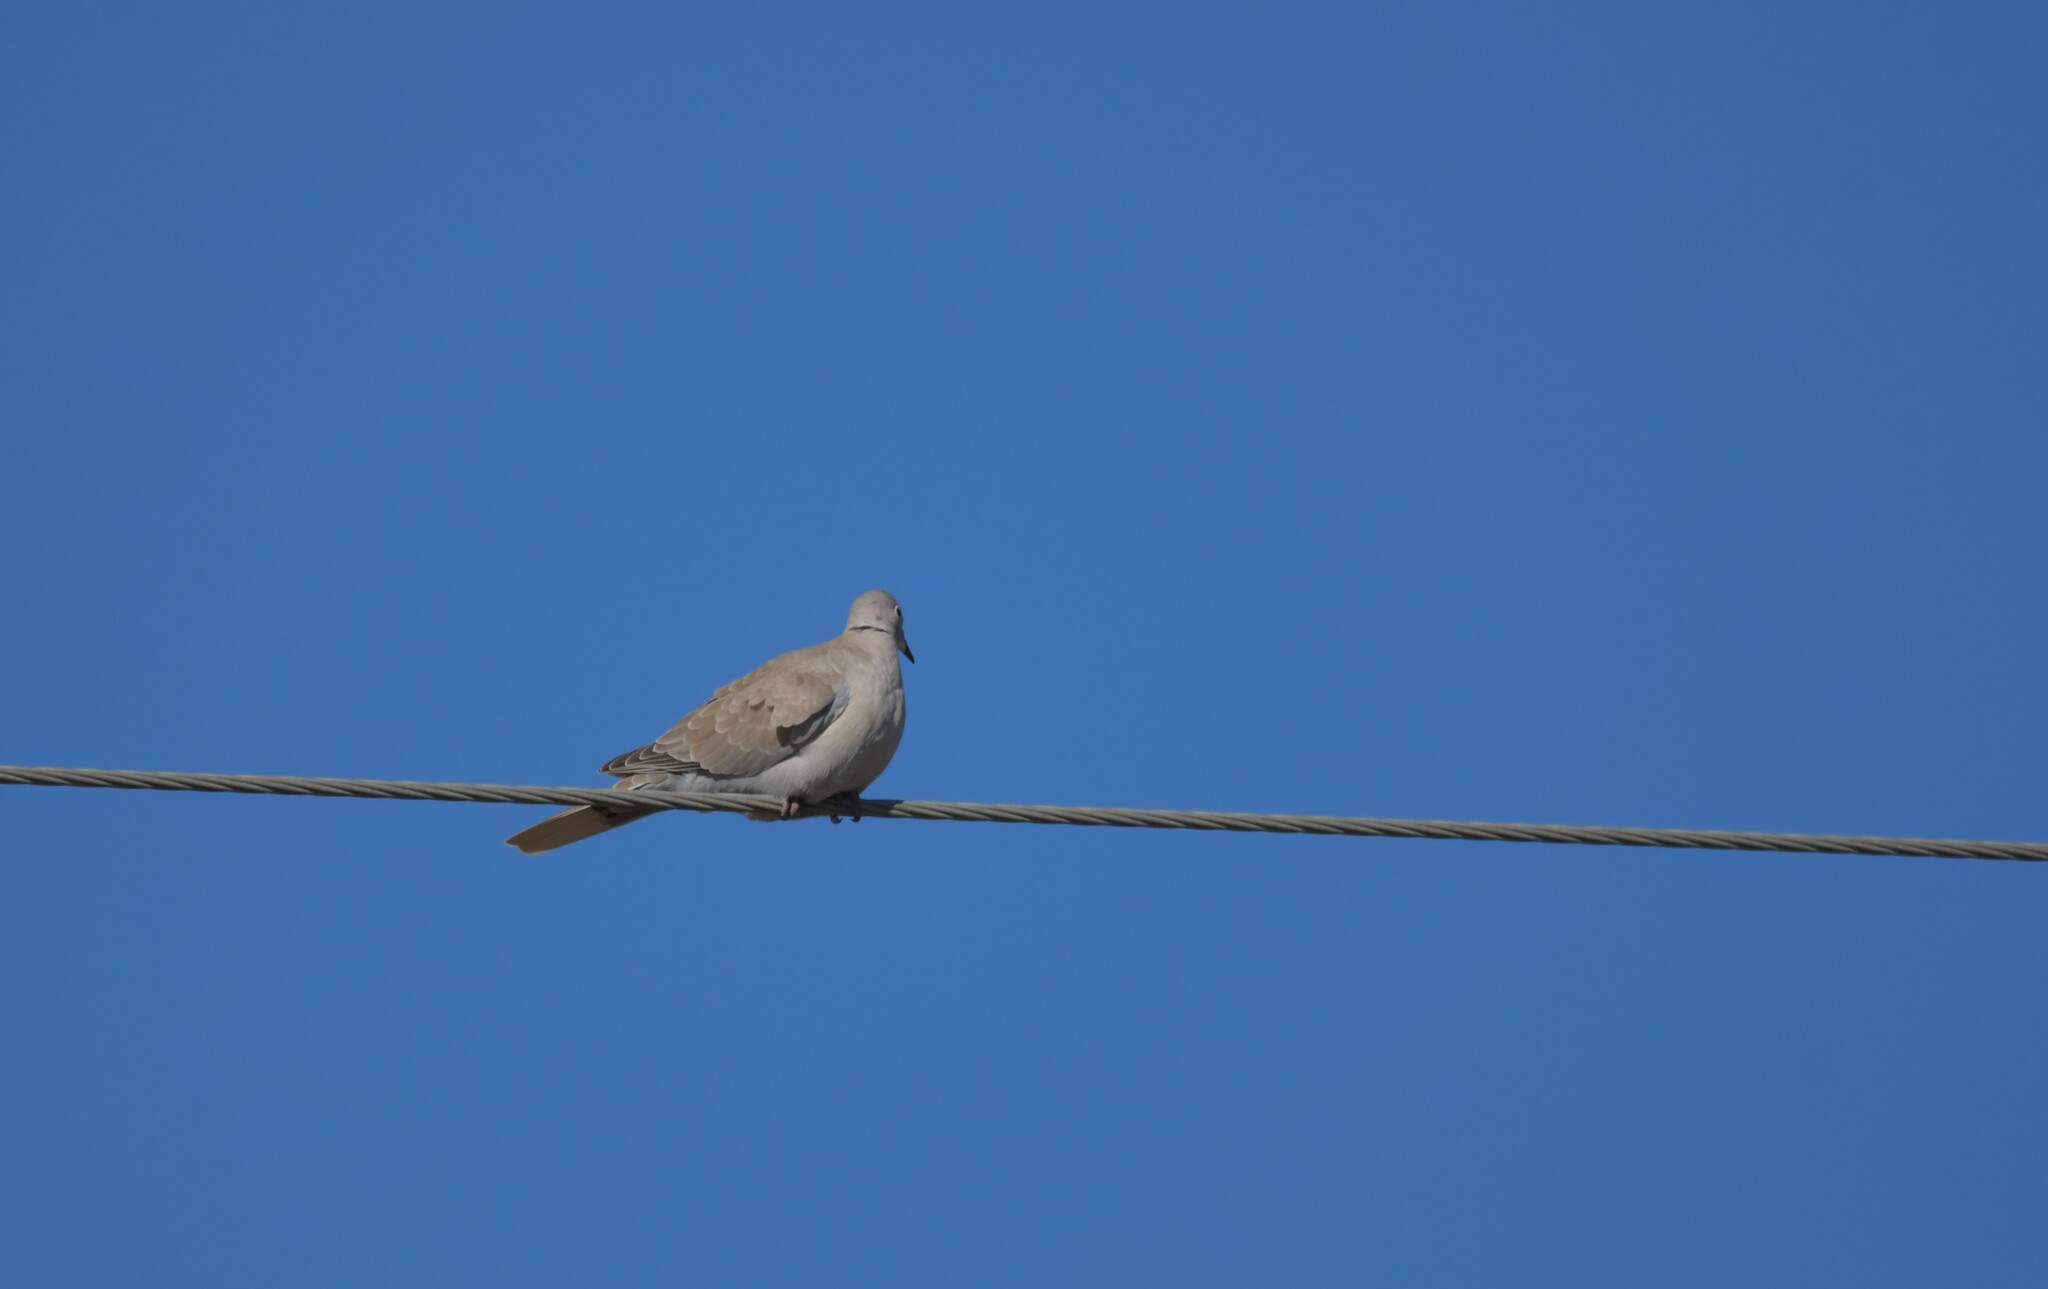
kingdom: Animalia
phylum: Chordata
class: Aves
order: Columbiformes
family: Columbidae
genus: Streptopelia
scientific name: Streptopelia decaocto
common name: Eurasian collared dove
